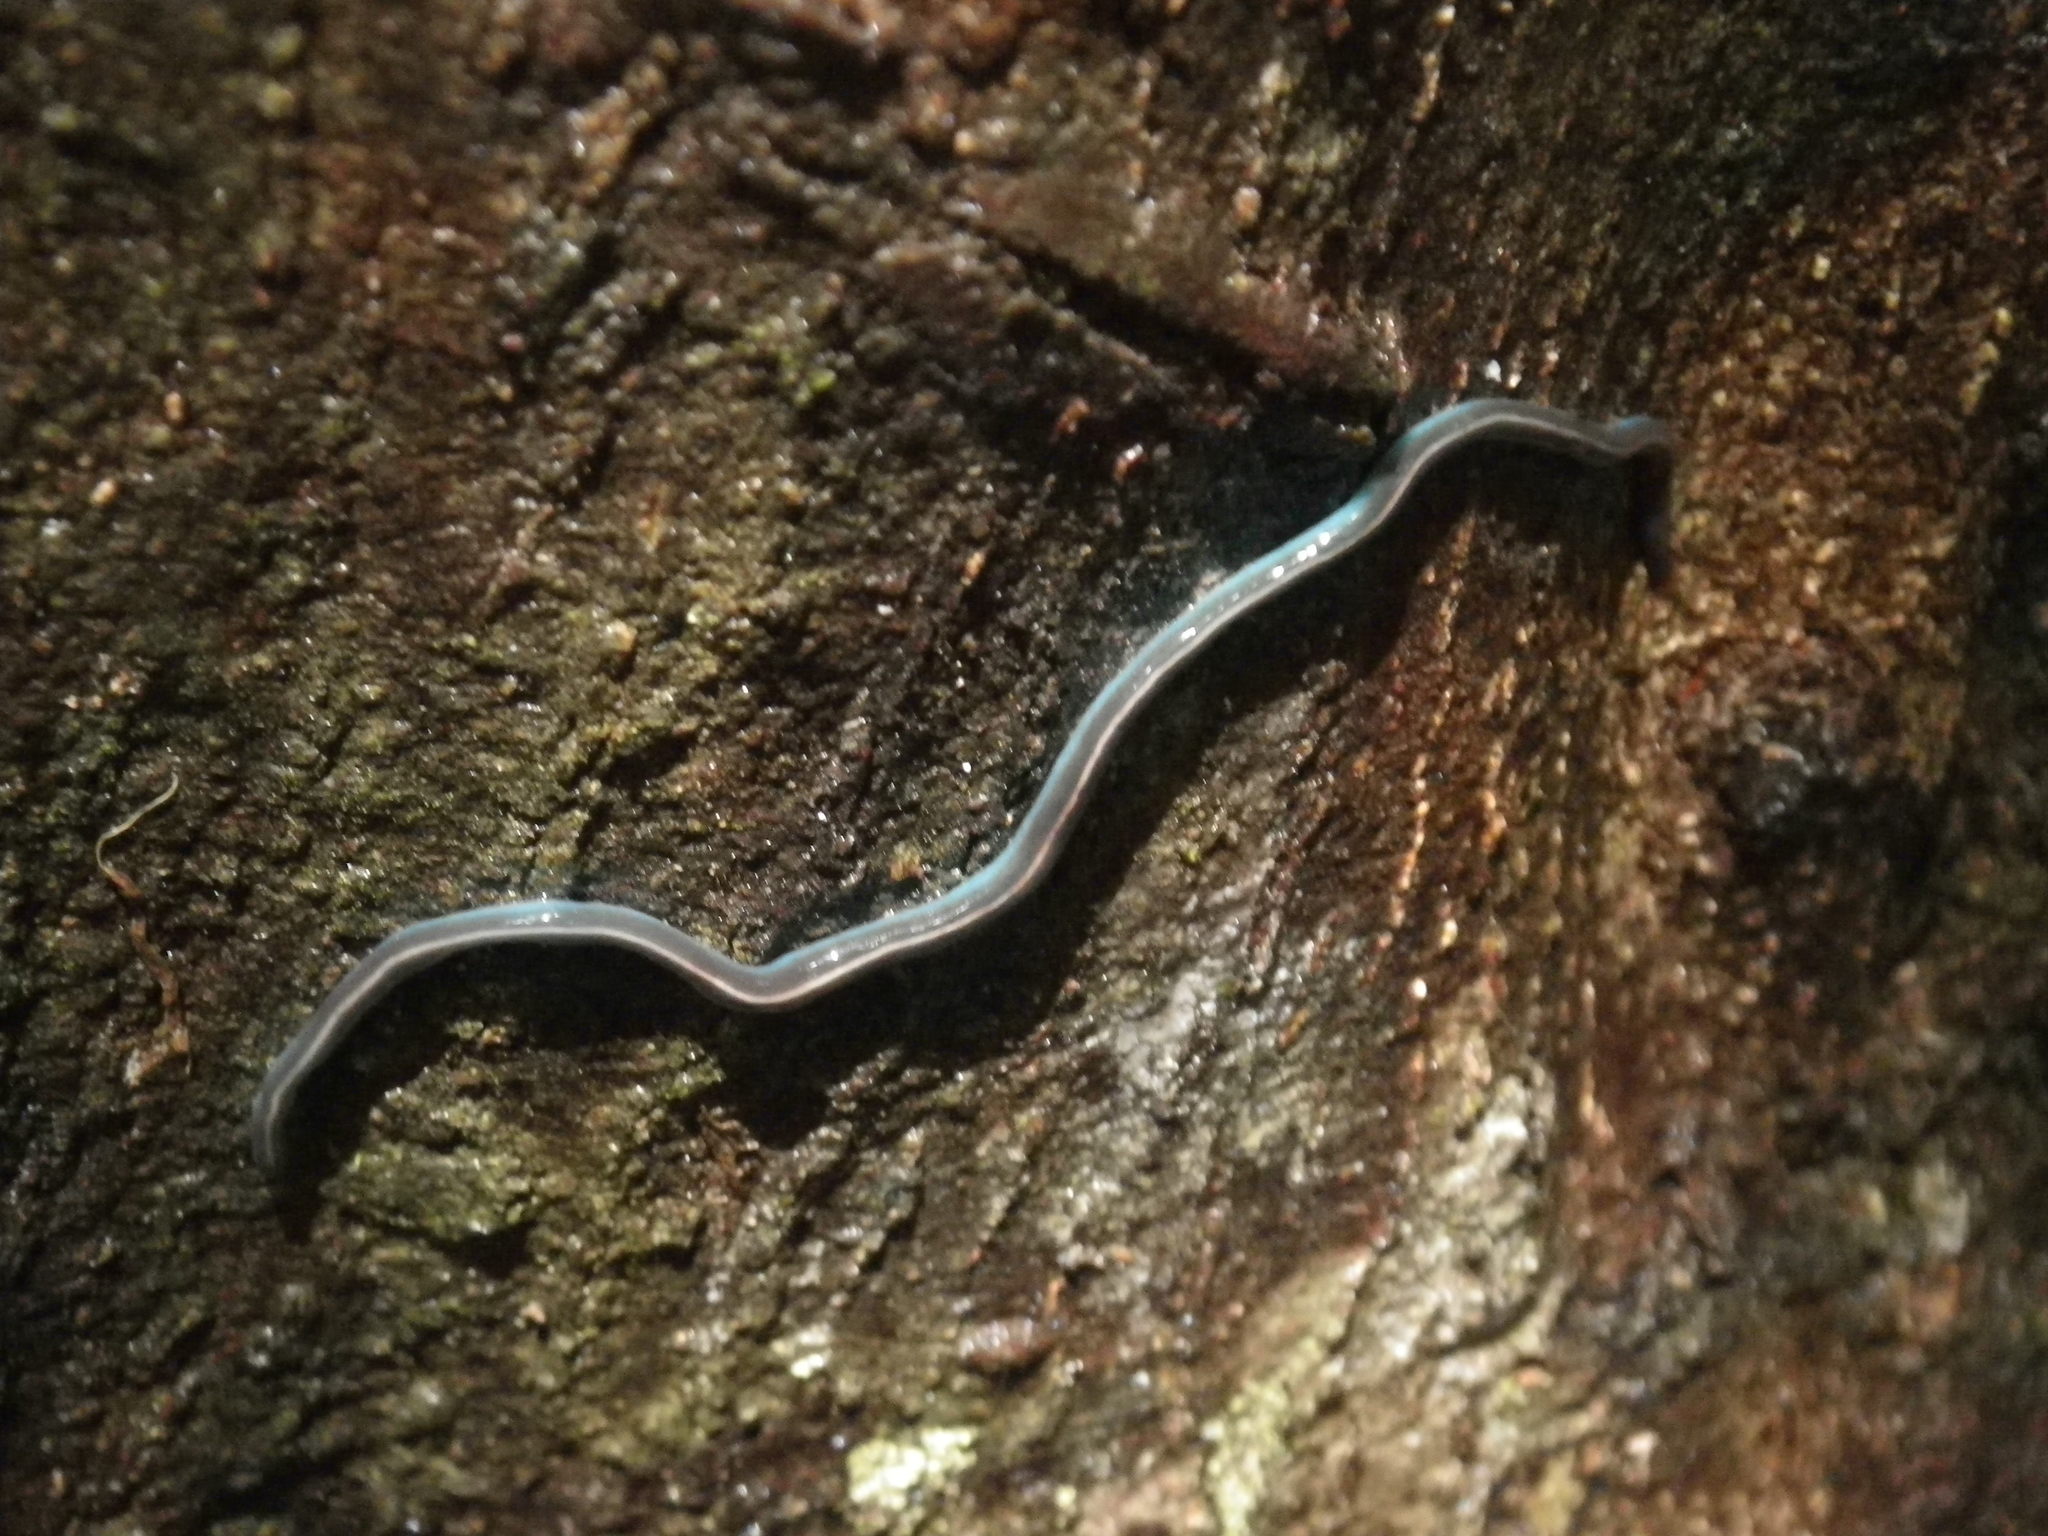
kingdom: Animalia
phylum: Platyhelminthes
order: Tricladida
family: Geoplanidae
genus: Caenoplana
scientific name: Caenoplana coerulea
